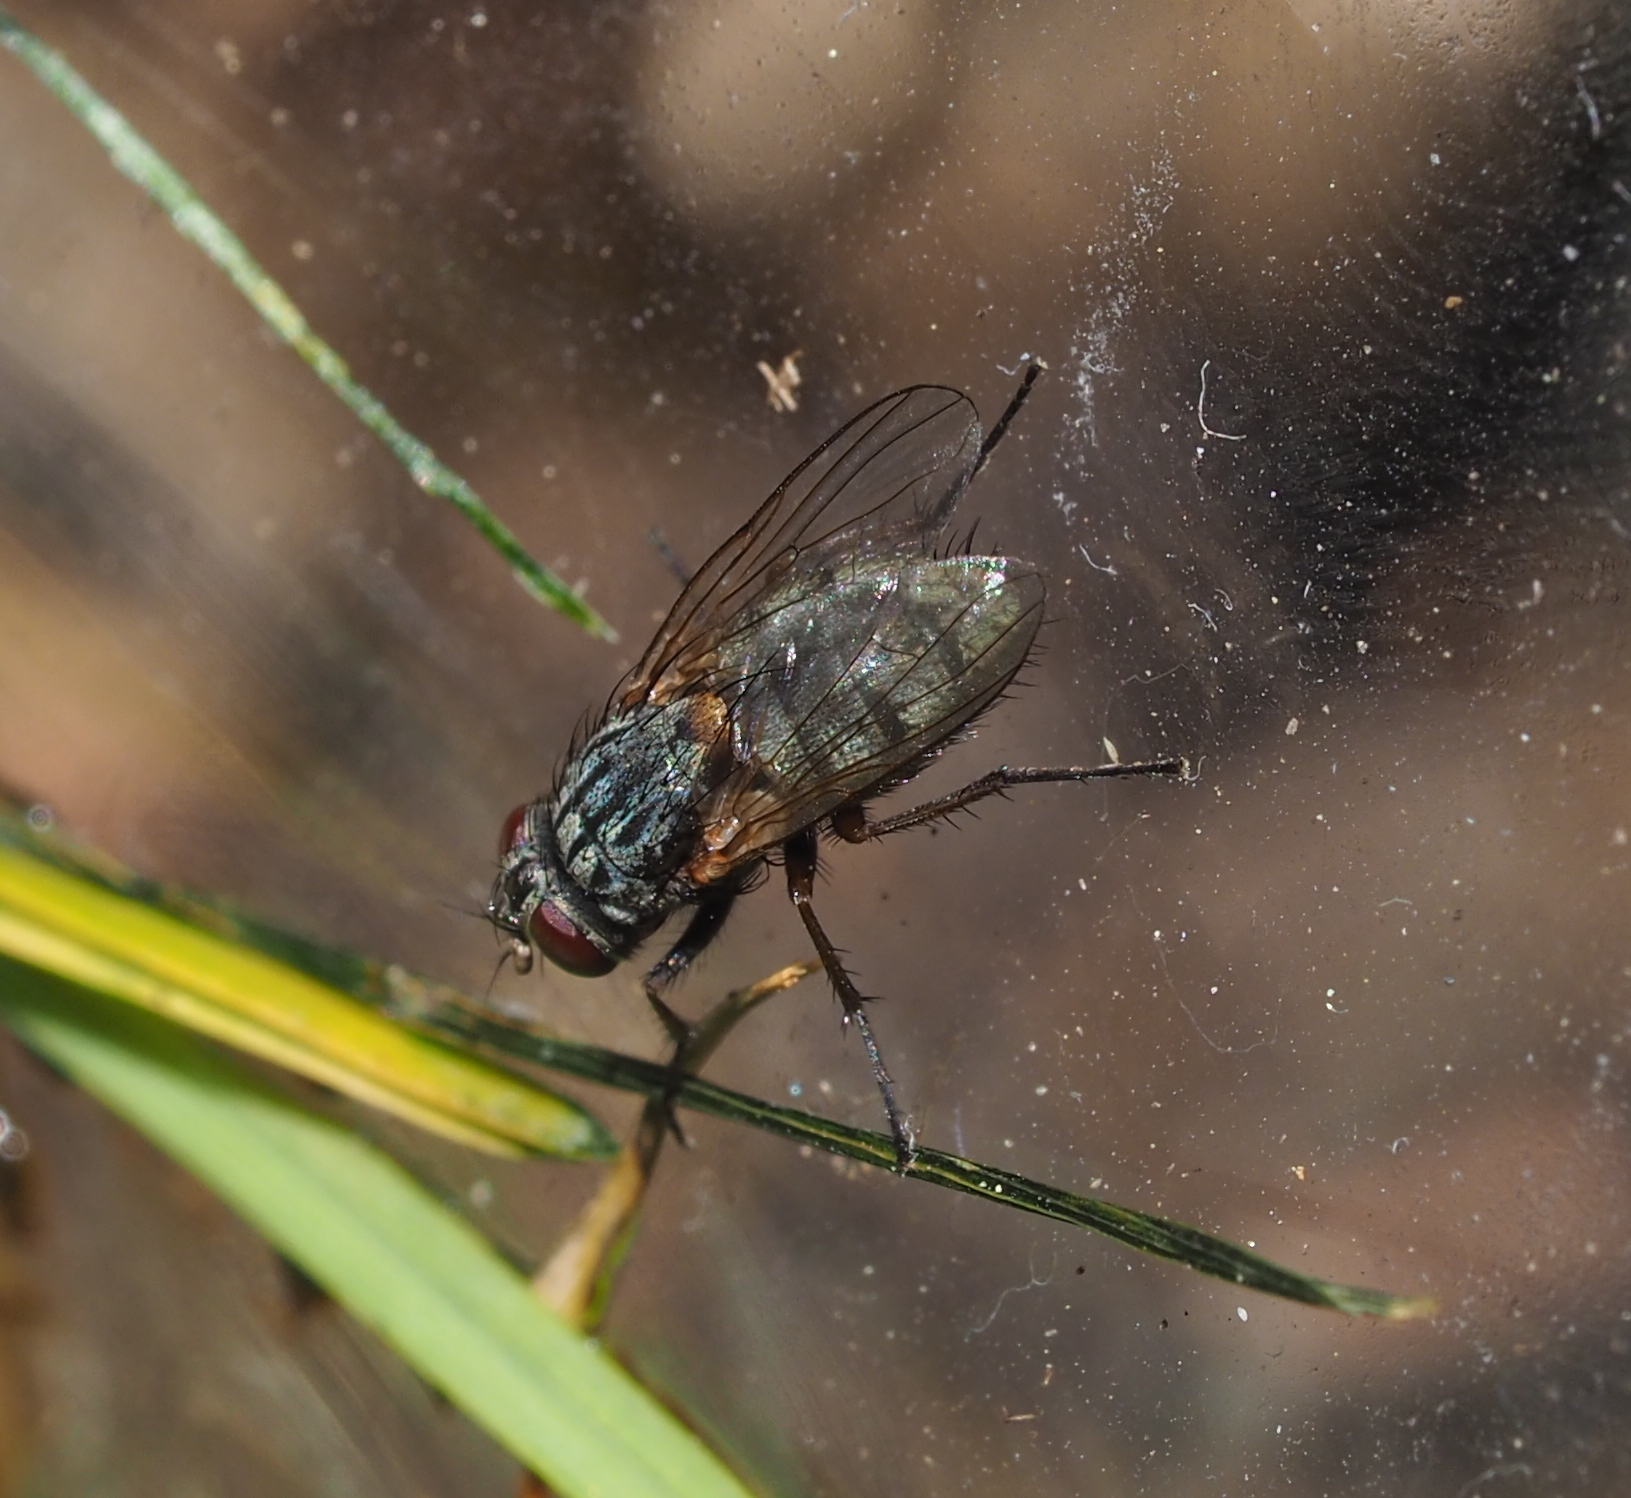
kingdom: Animalia
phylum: Arthropoda
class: Insecta
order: Diptera
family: Muscidae
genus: Muscina
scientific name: Muscina stabulans
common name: False stable fly
